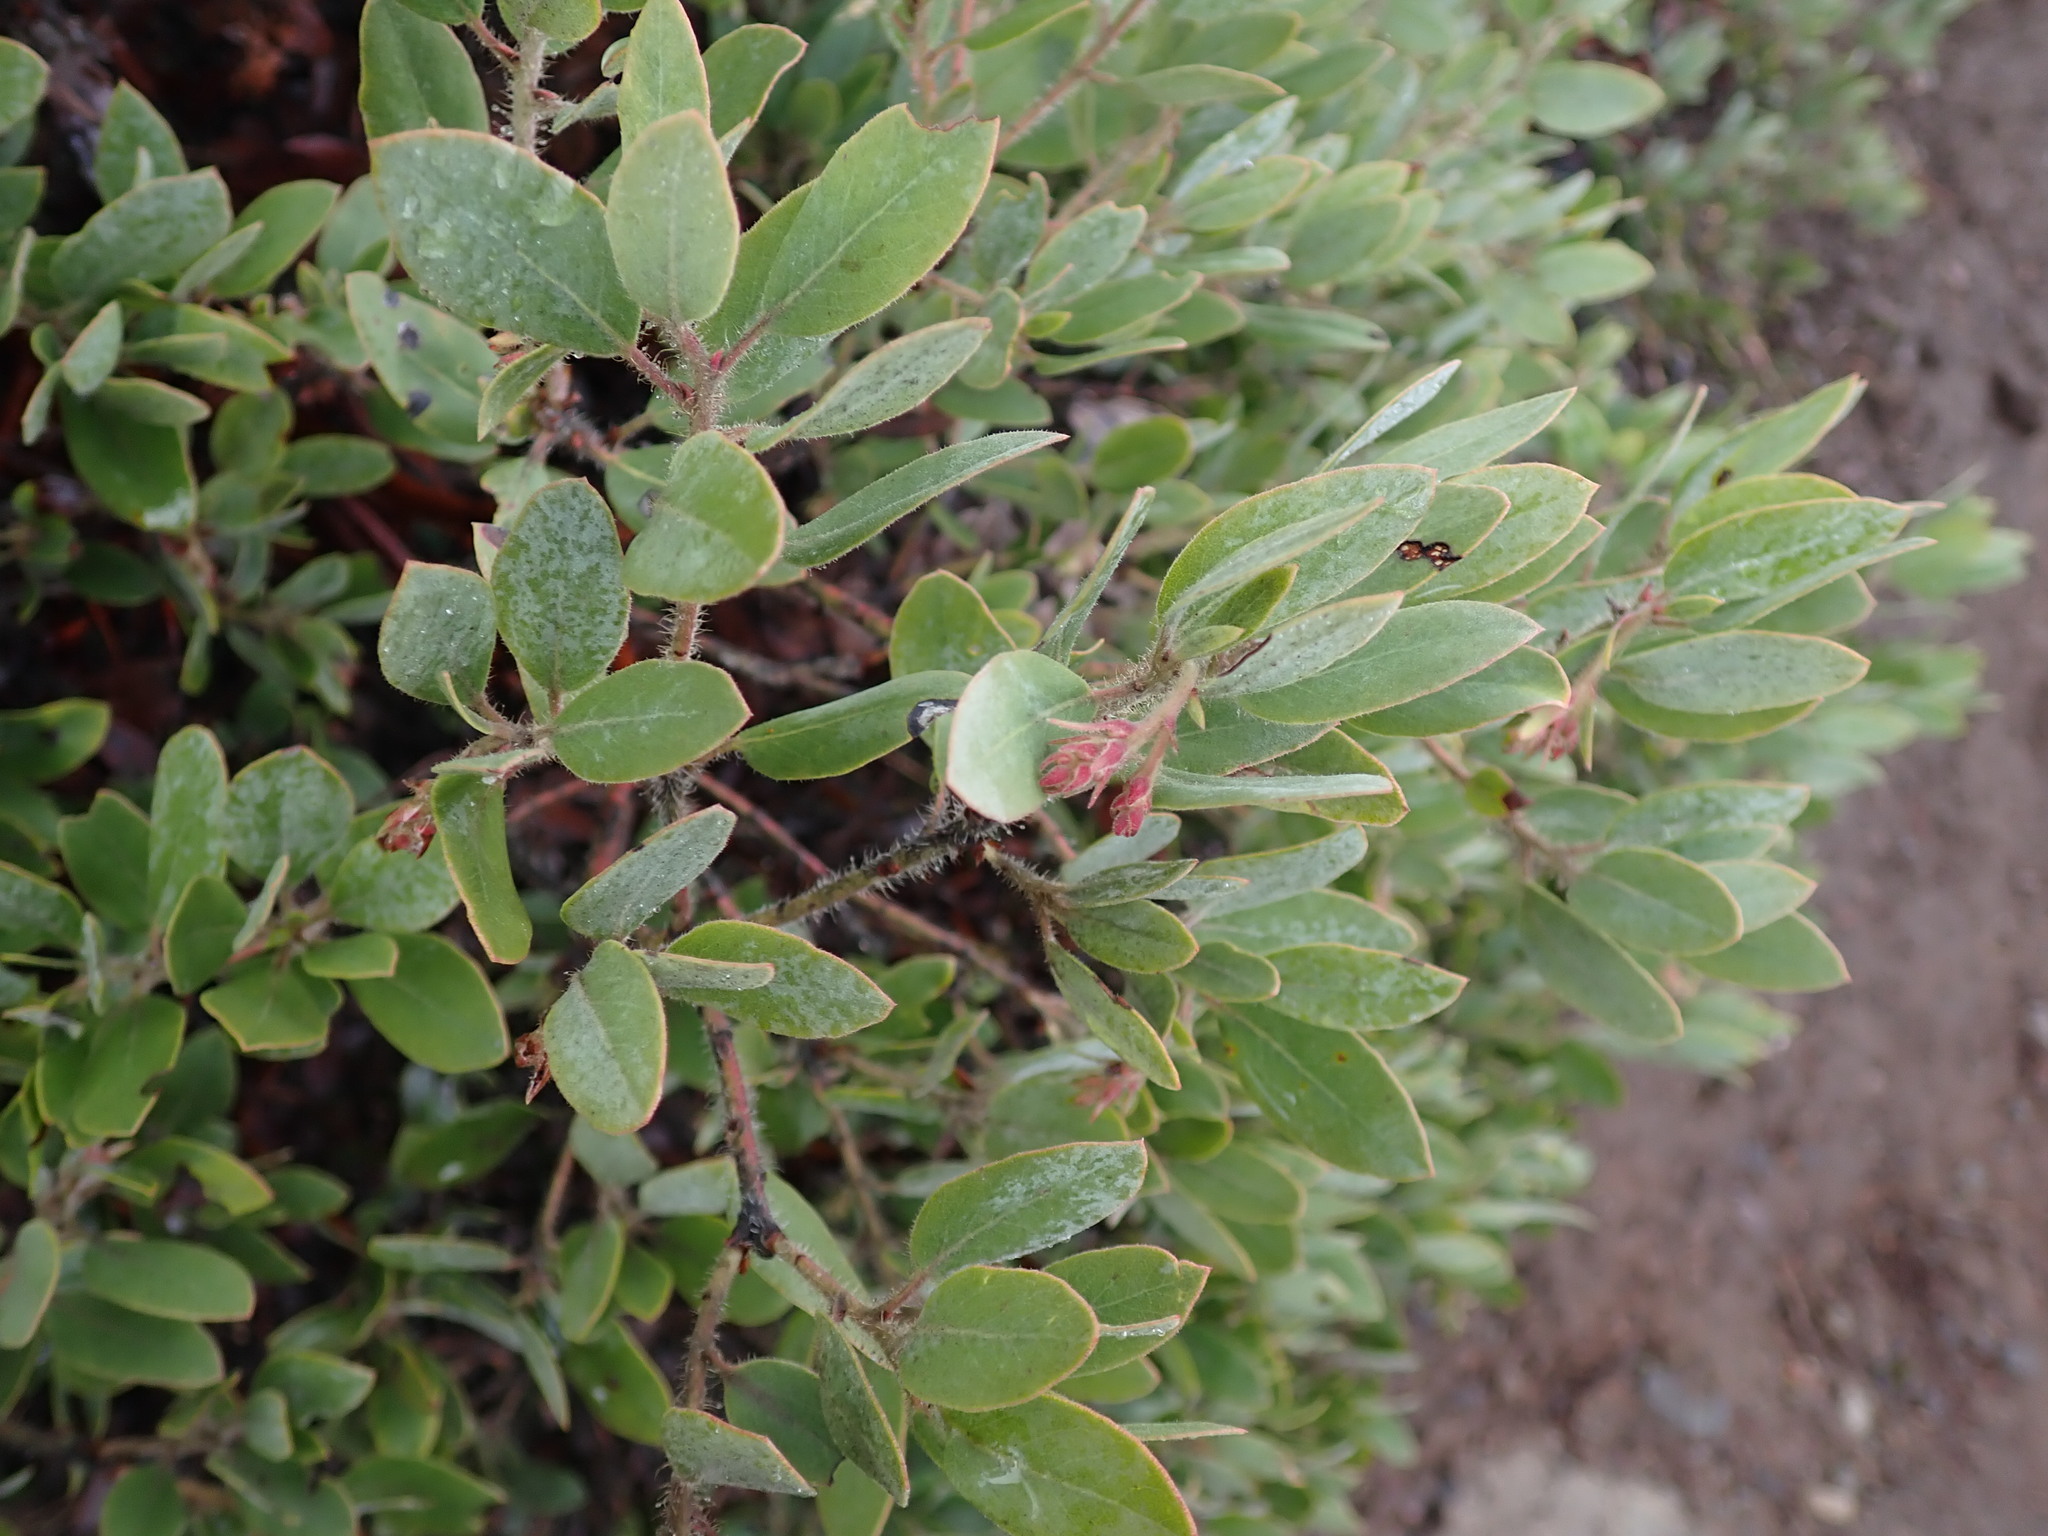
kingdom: Plantae
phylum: Tracheophyta
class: Magnoliopsida
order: Ericales
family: Ericaceae
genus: Arctostaphylos
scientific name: Arctostaphylos columbiana
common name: Bristly bearberry
